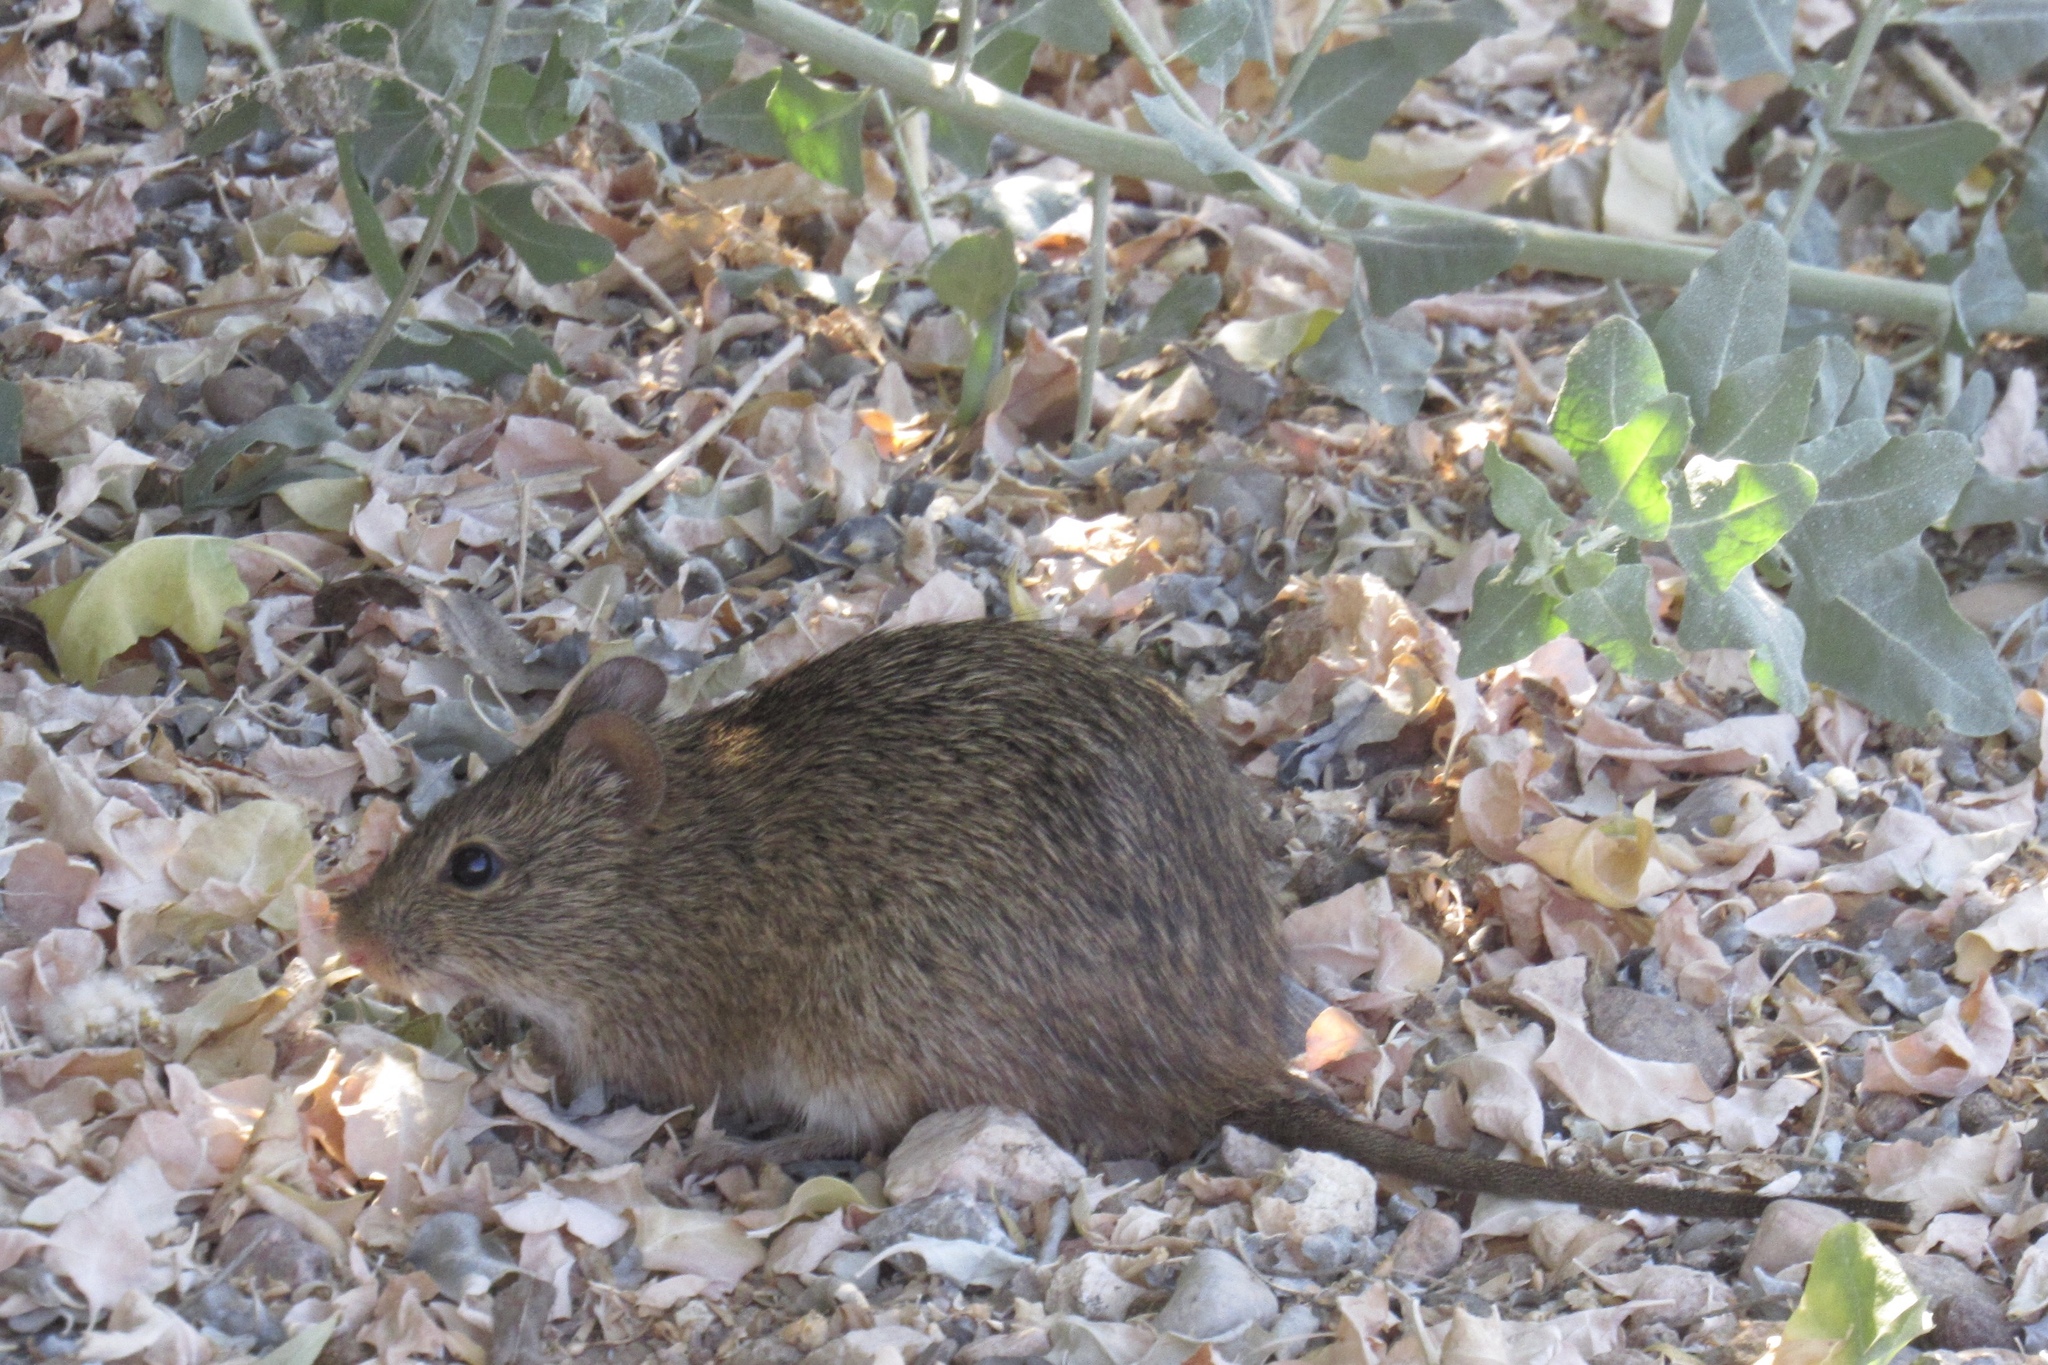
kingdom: Animalia
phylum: Chordata
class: Mammalia
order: Rodentia
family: Cricetidae
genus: Sigmodon
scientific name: Sigmodon arizonae
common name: Arizona cotton rat
